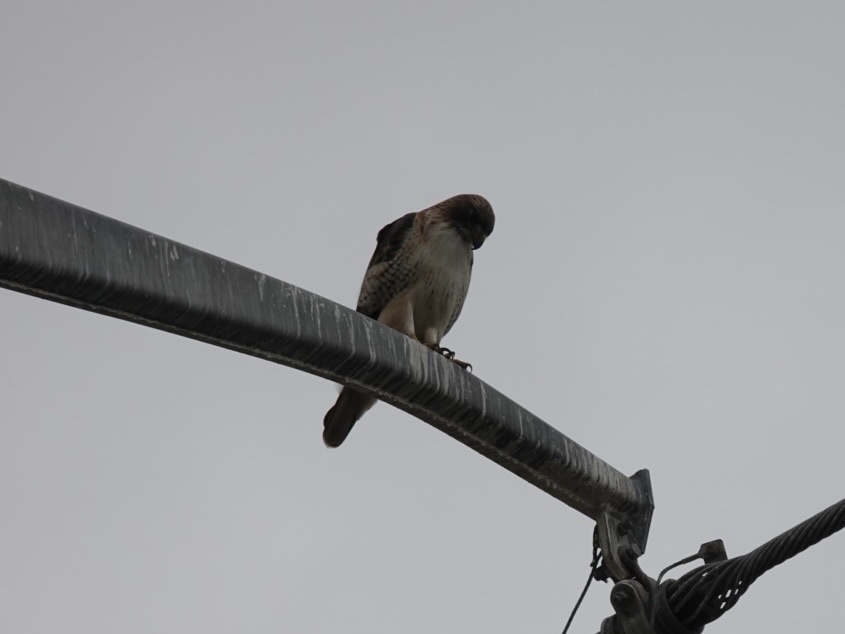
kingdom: Animalia
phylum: Chordata
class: Aves
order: Accipitriformes
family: Accipitridae
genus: Buteo
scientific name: Buteo jamaicensis
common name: Red-tailed hawk
